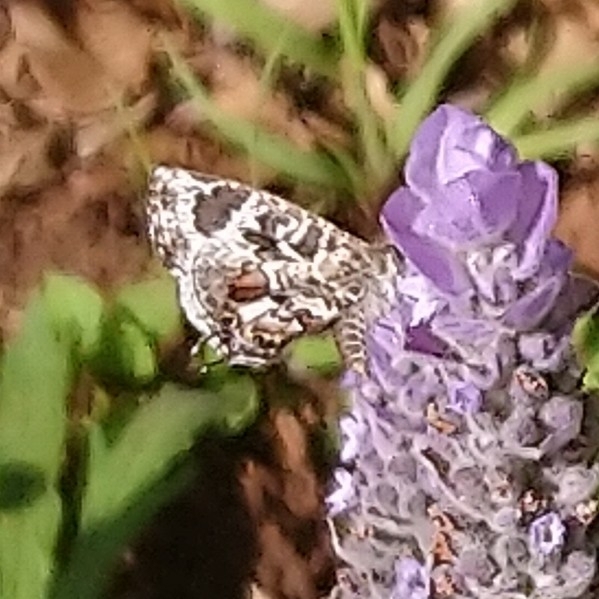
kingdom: Animalia
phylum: Arthropoda
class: Insecta
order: Lepidoptera
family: Lycaenidae
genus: Cacyreus
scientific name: Cacyreus lingeus
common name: Bush bronze
